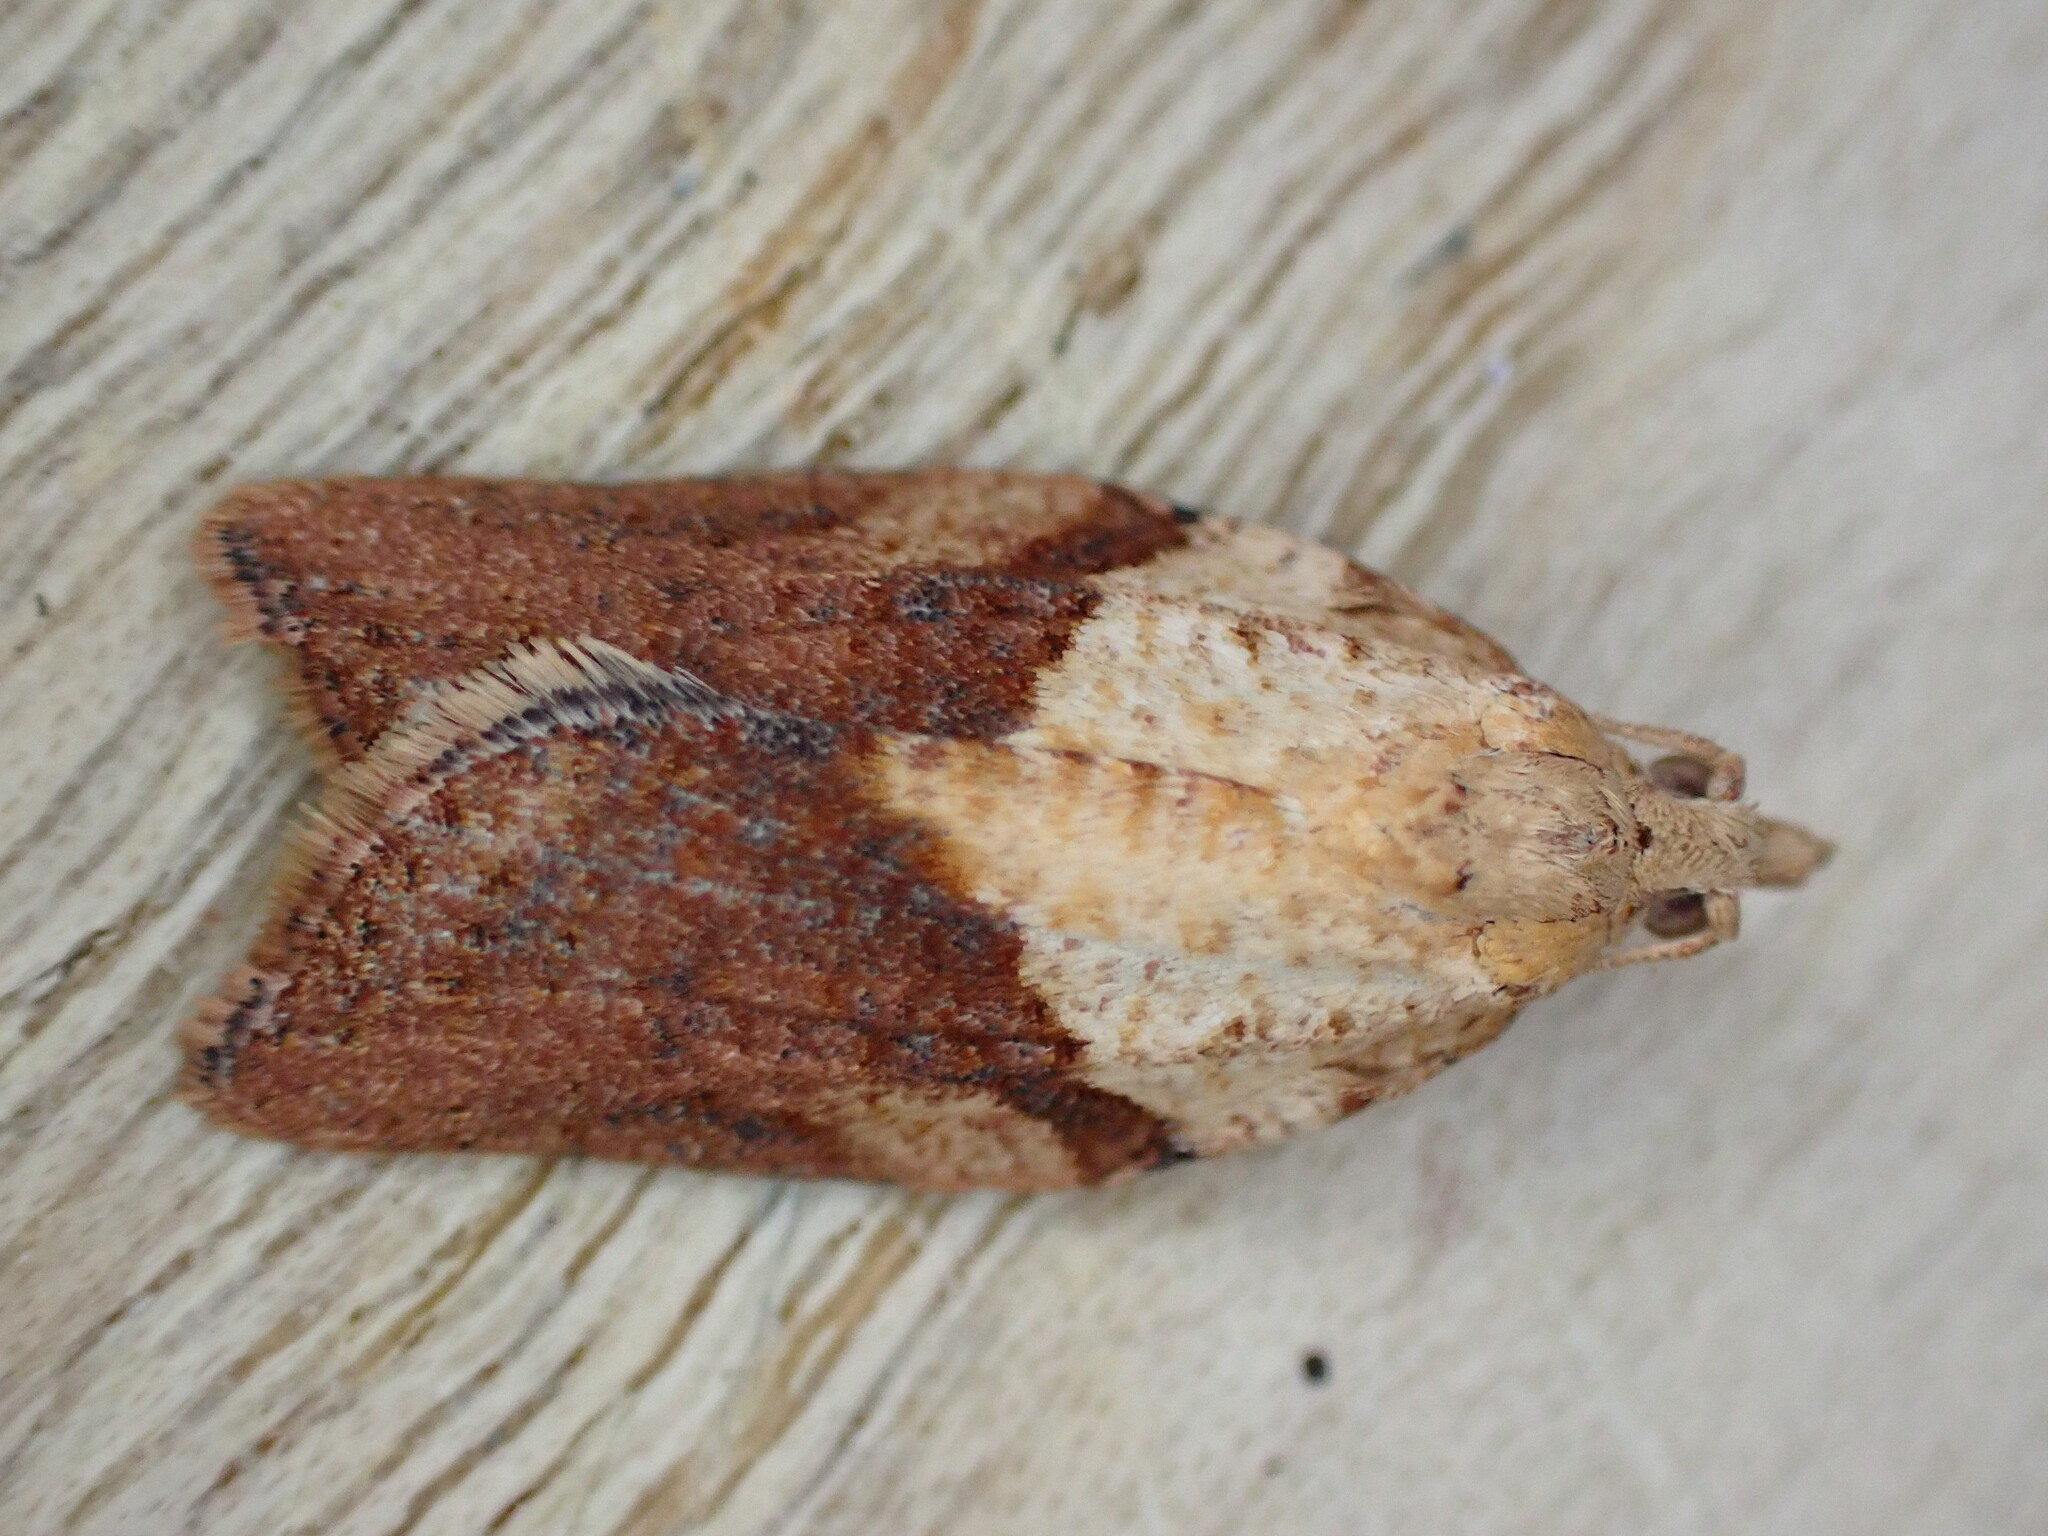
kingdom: Animalia
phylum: Arthropoda
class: Insecta
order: Lepidoptera
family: Tortricidae
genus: Epiphyas
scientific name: Epiphyas postvittana
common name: Light brown apple moth
